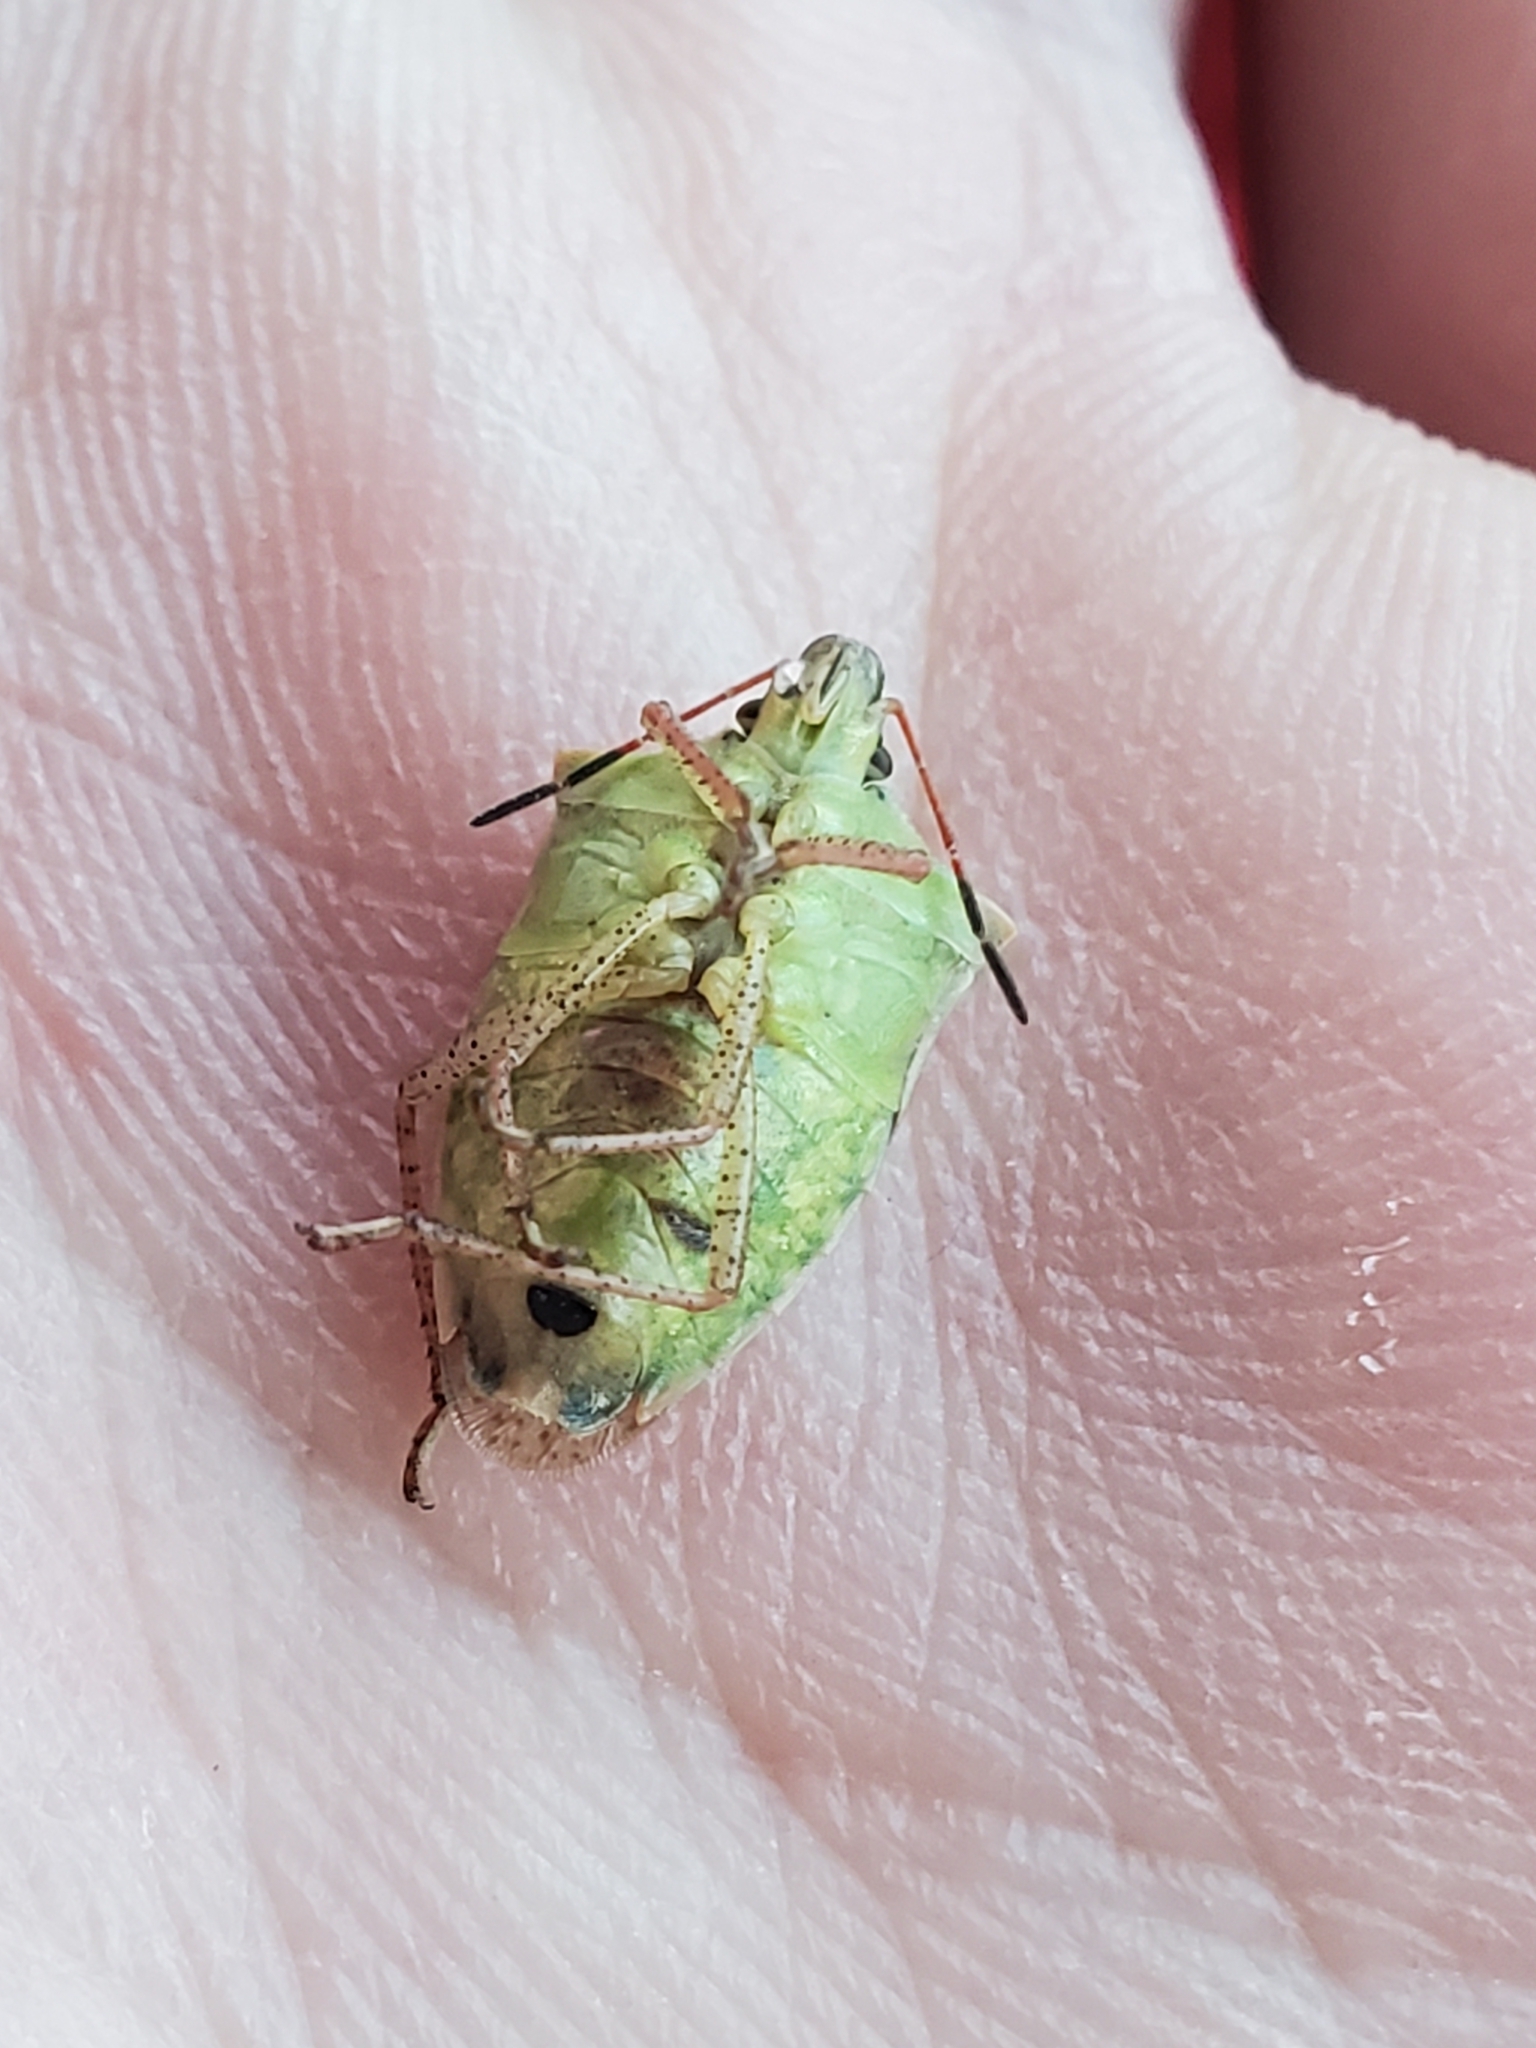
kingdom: Animalia
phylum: Arthropoda
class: Insecta
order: Hemiptera
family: Pentatomidae
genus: Euschistus
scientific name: Euschistus variolarius
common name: Onespotted stink bug
